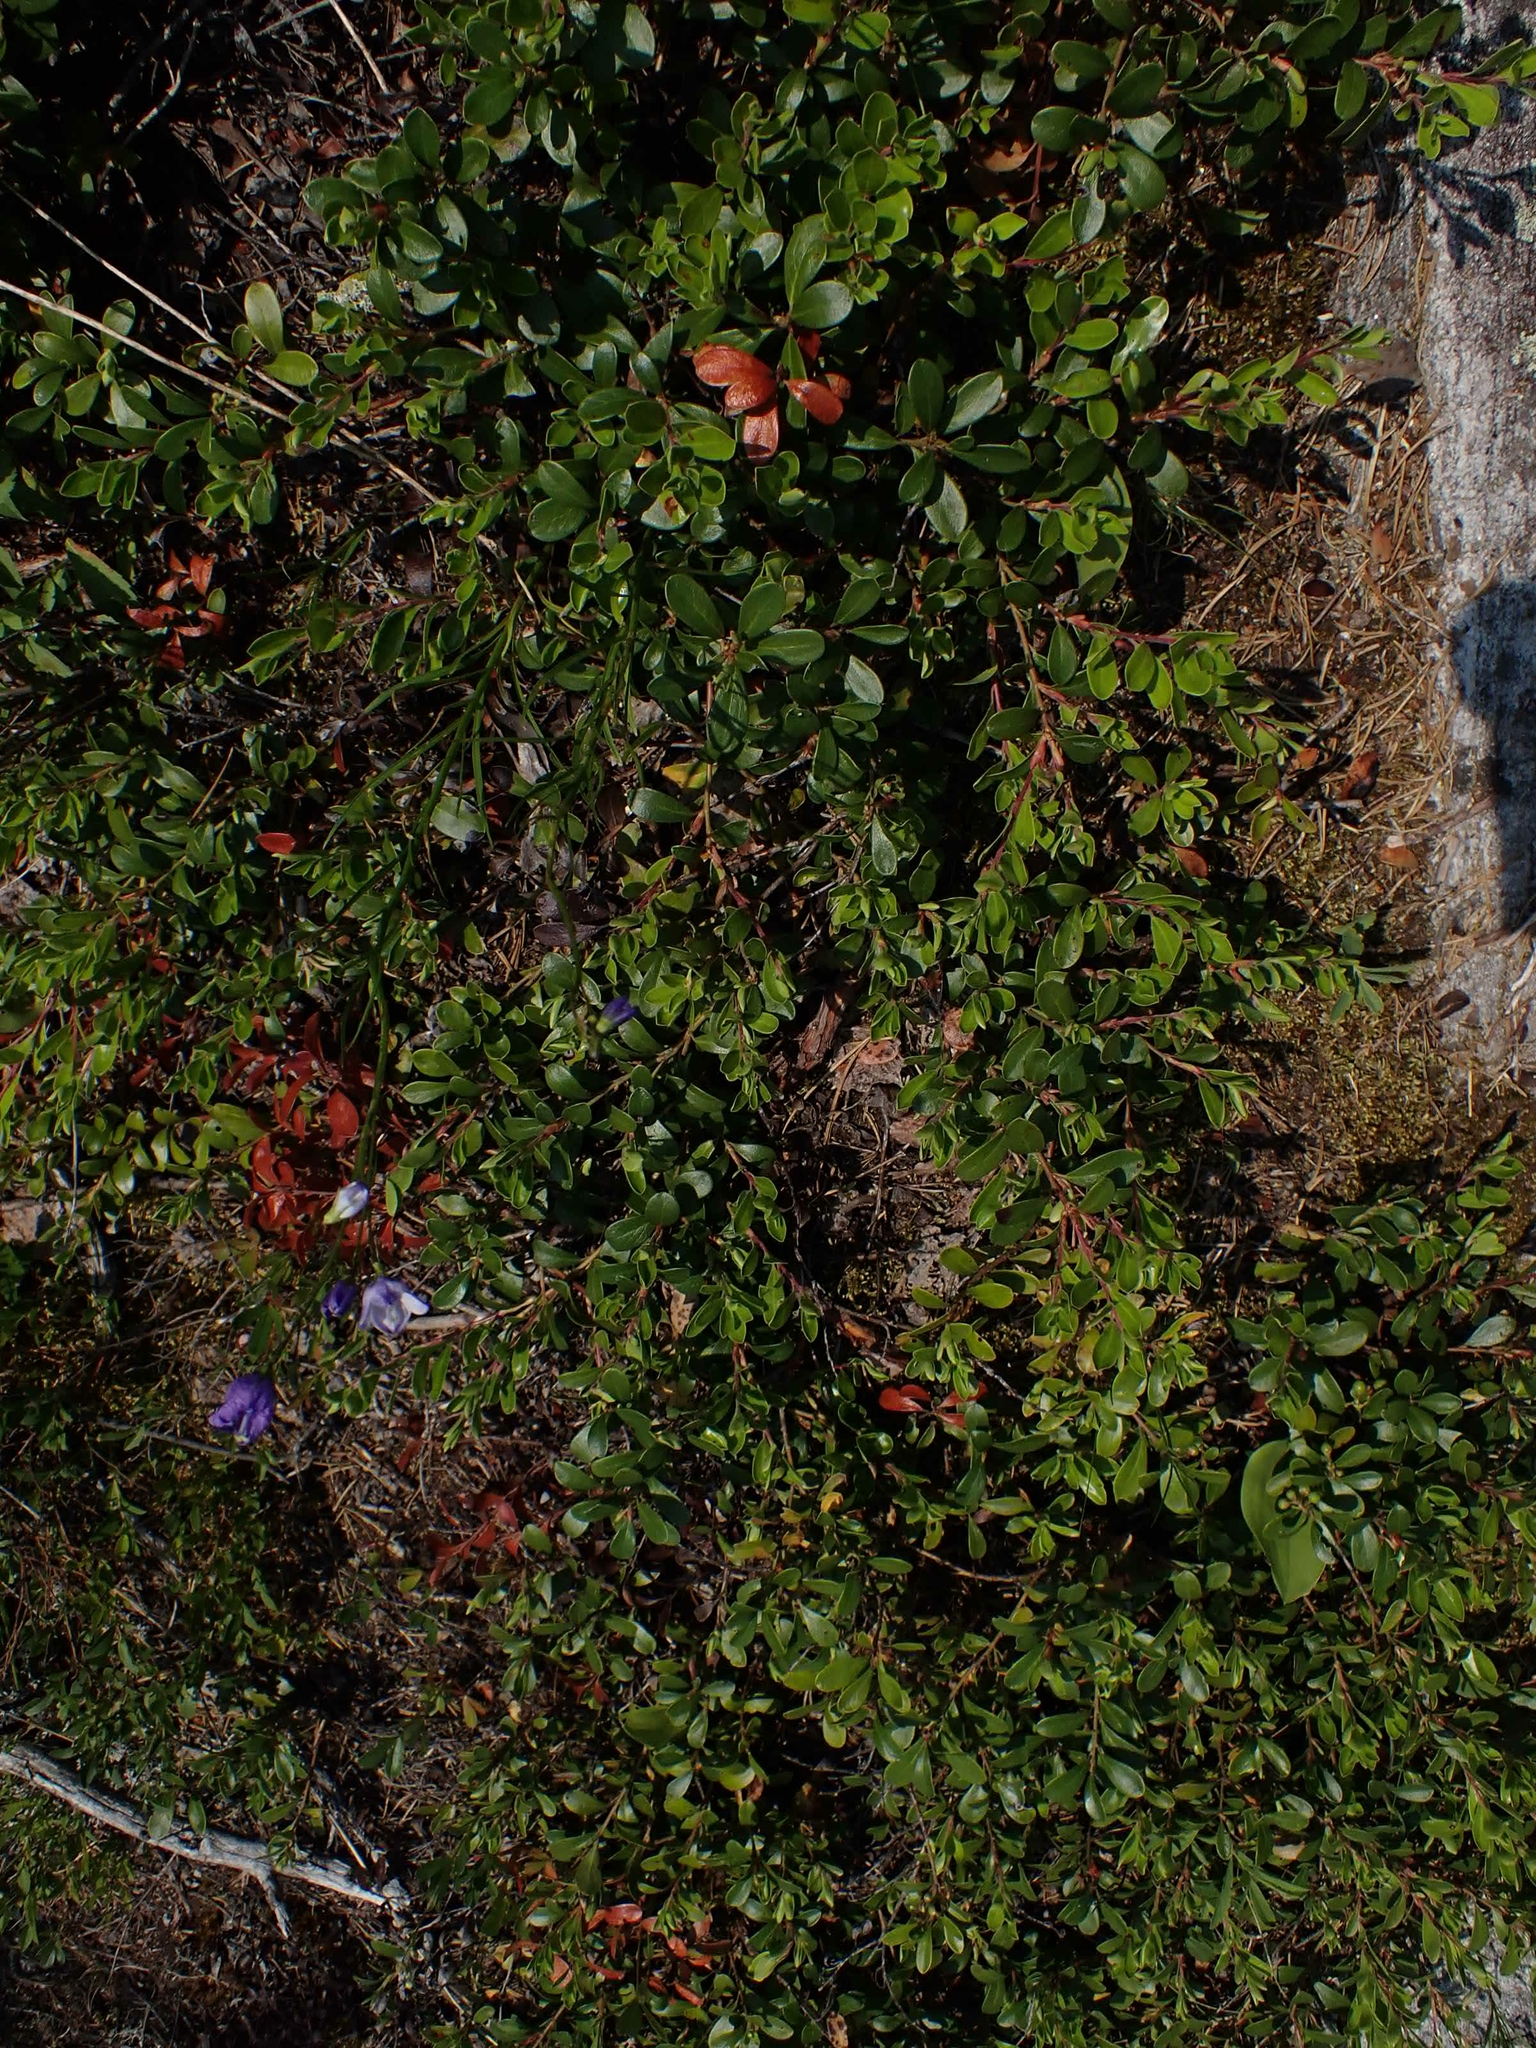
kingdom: Plantae
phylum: Tracheophyta
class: Magnoliopsida
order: Ericales
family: Ericaceae
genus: Arctostaphylos
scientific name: Arctostaphylos uva-ursi
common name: Bearberry
